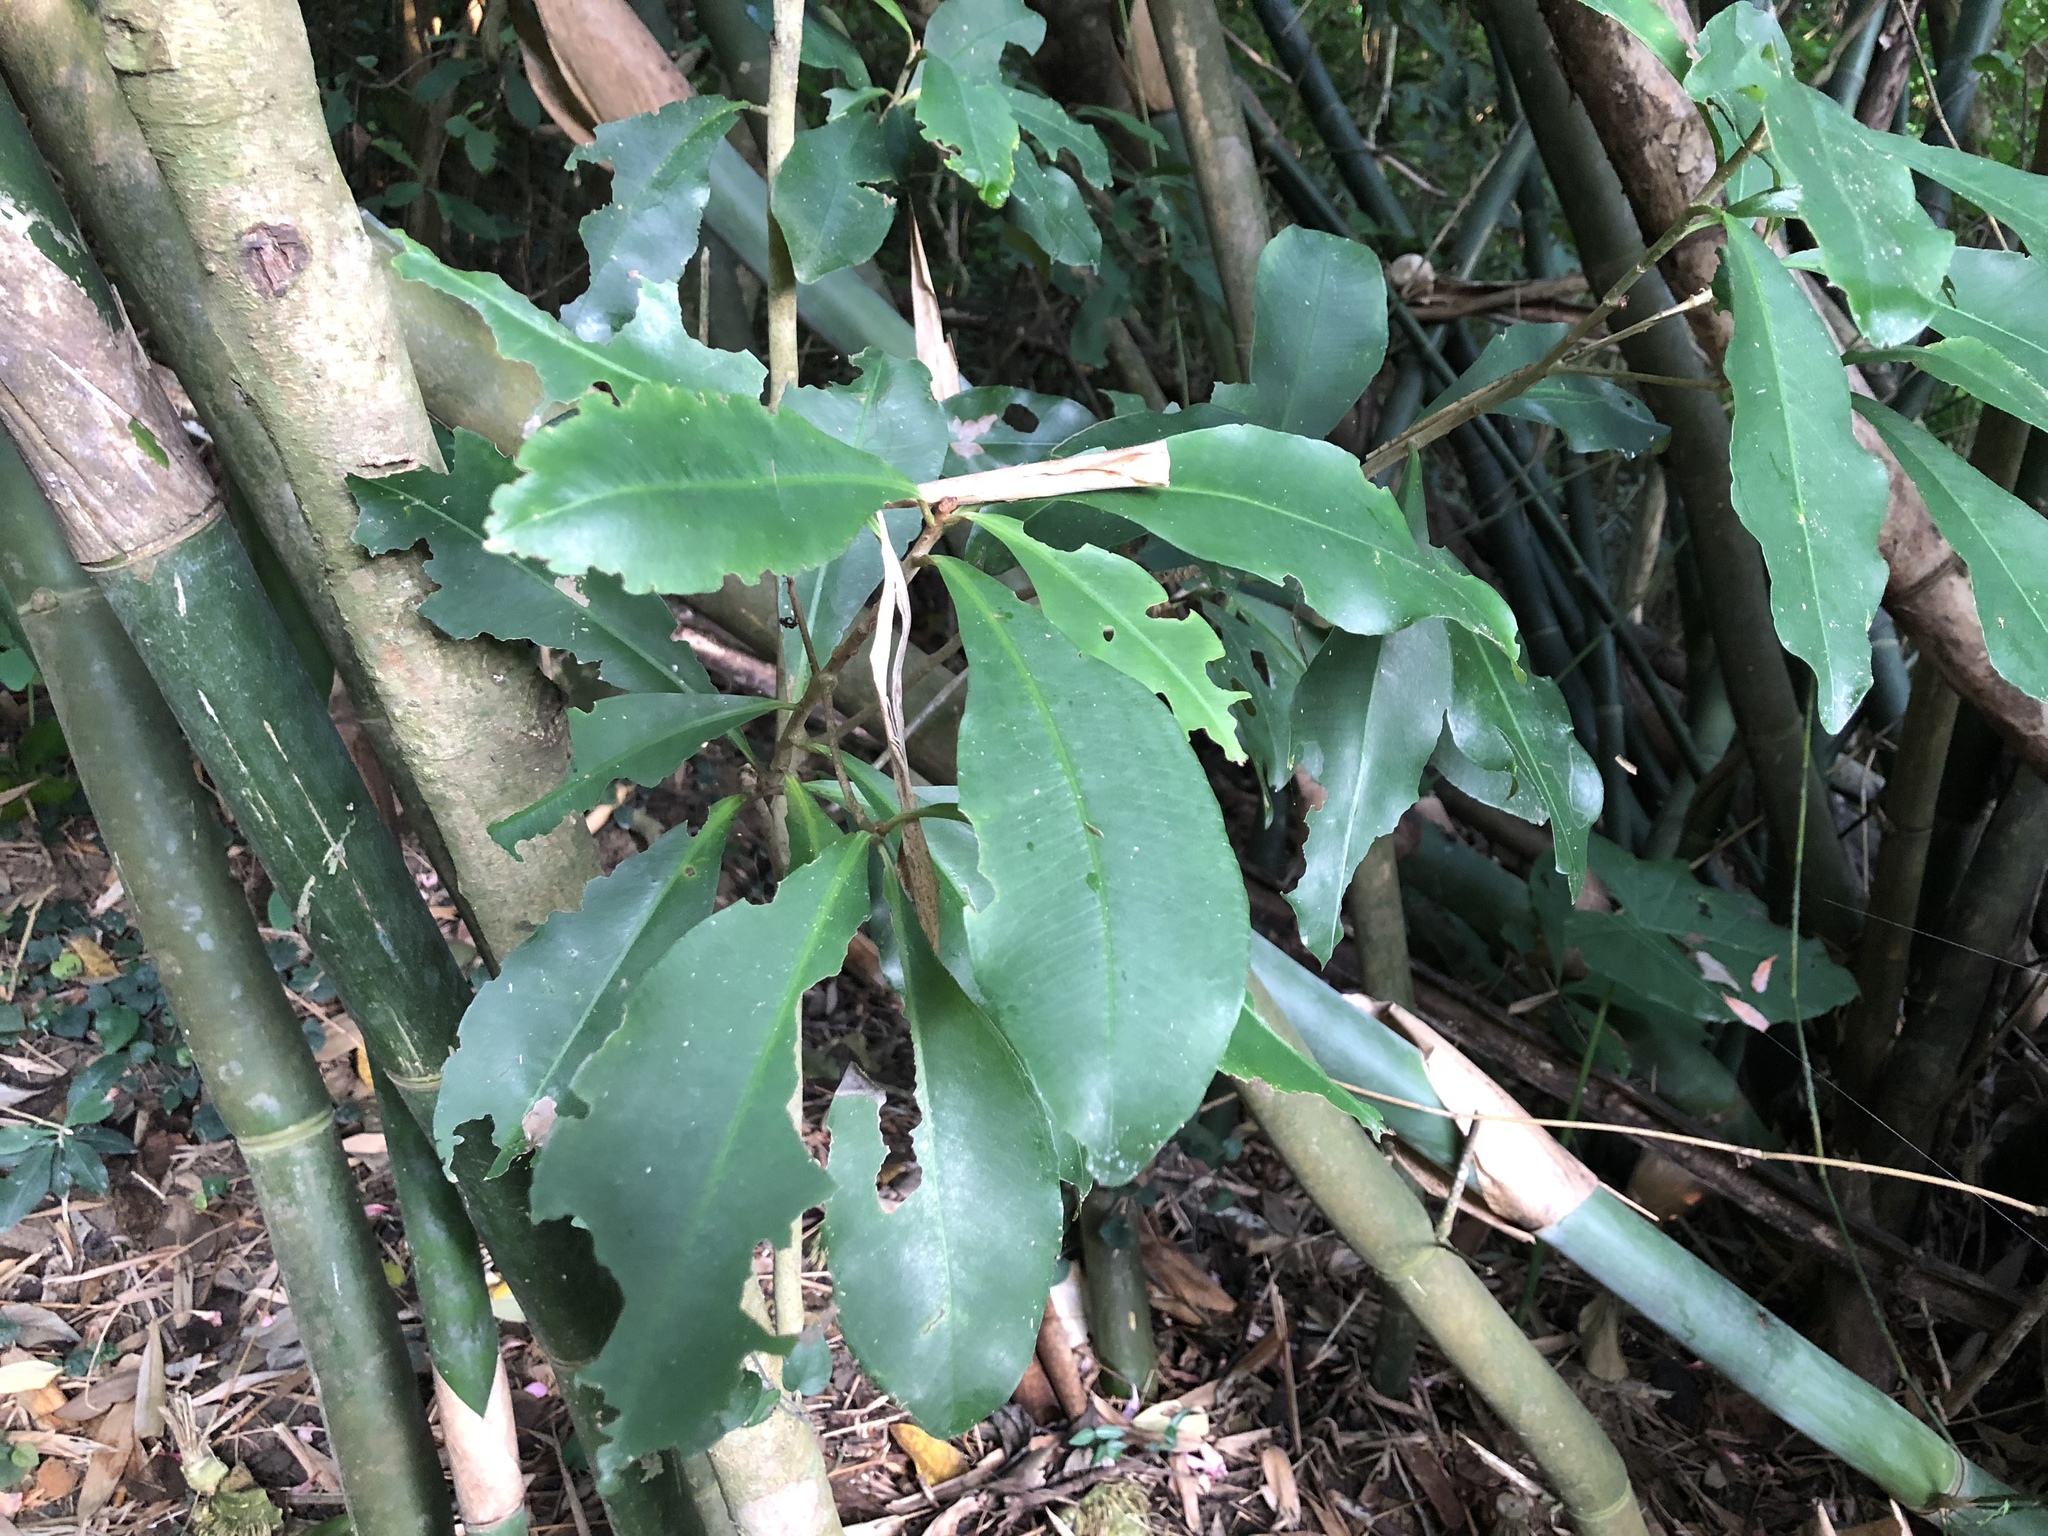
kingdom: Plantae
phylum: Tracheophyta
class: Magnoliopsida
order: Ericales
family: Primulaceae
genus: Ardisia
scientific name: Ardisia sieboldii
